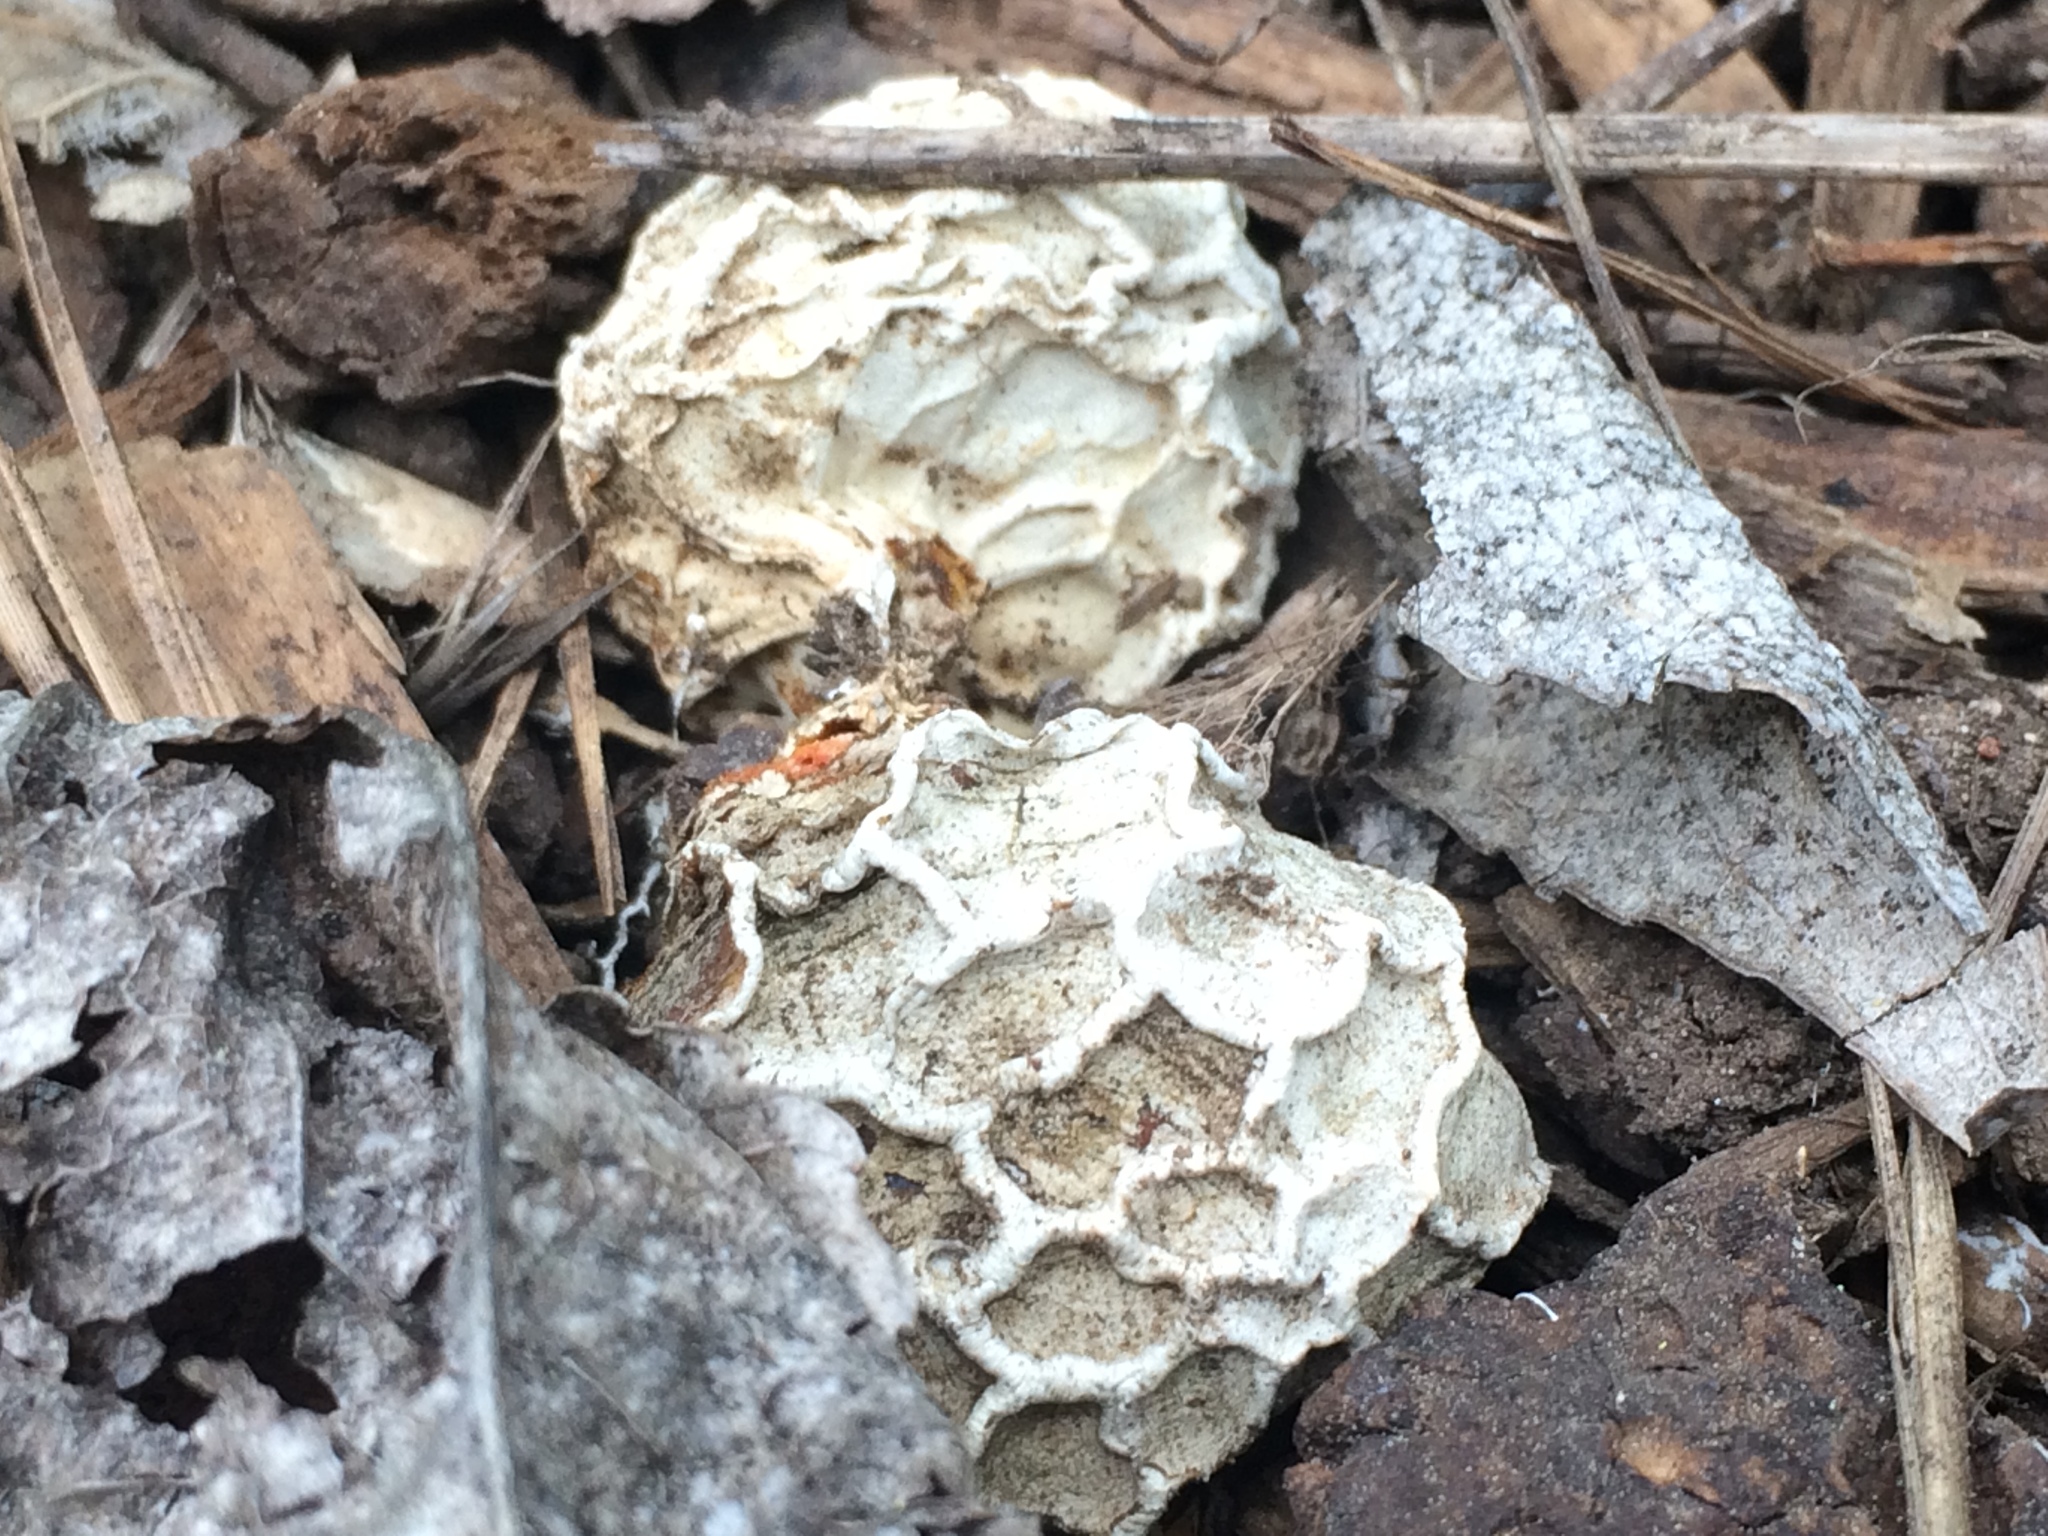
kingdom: Fungi
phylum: Basidiomycota
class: Agaricomycetes
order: Phallales
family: Phallaceae
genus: Clathrus
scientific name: Clathrus ruber
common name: Red cage
